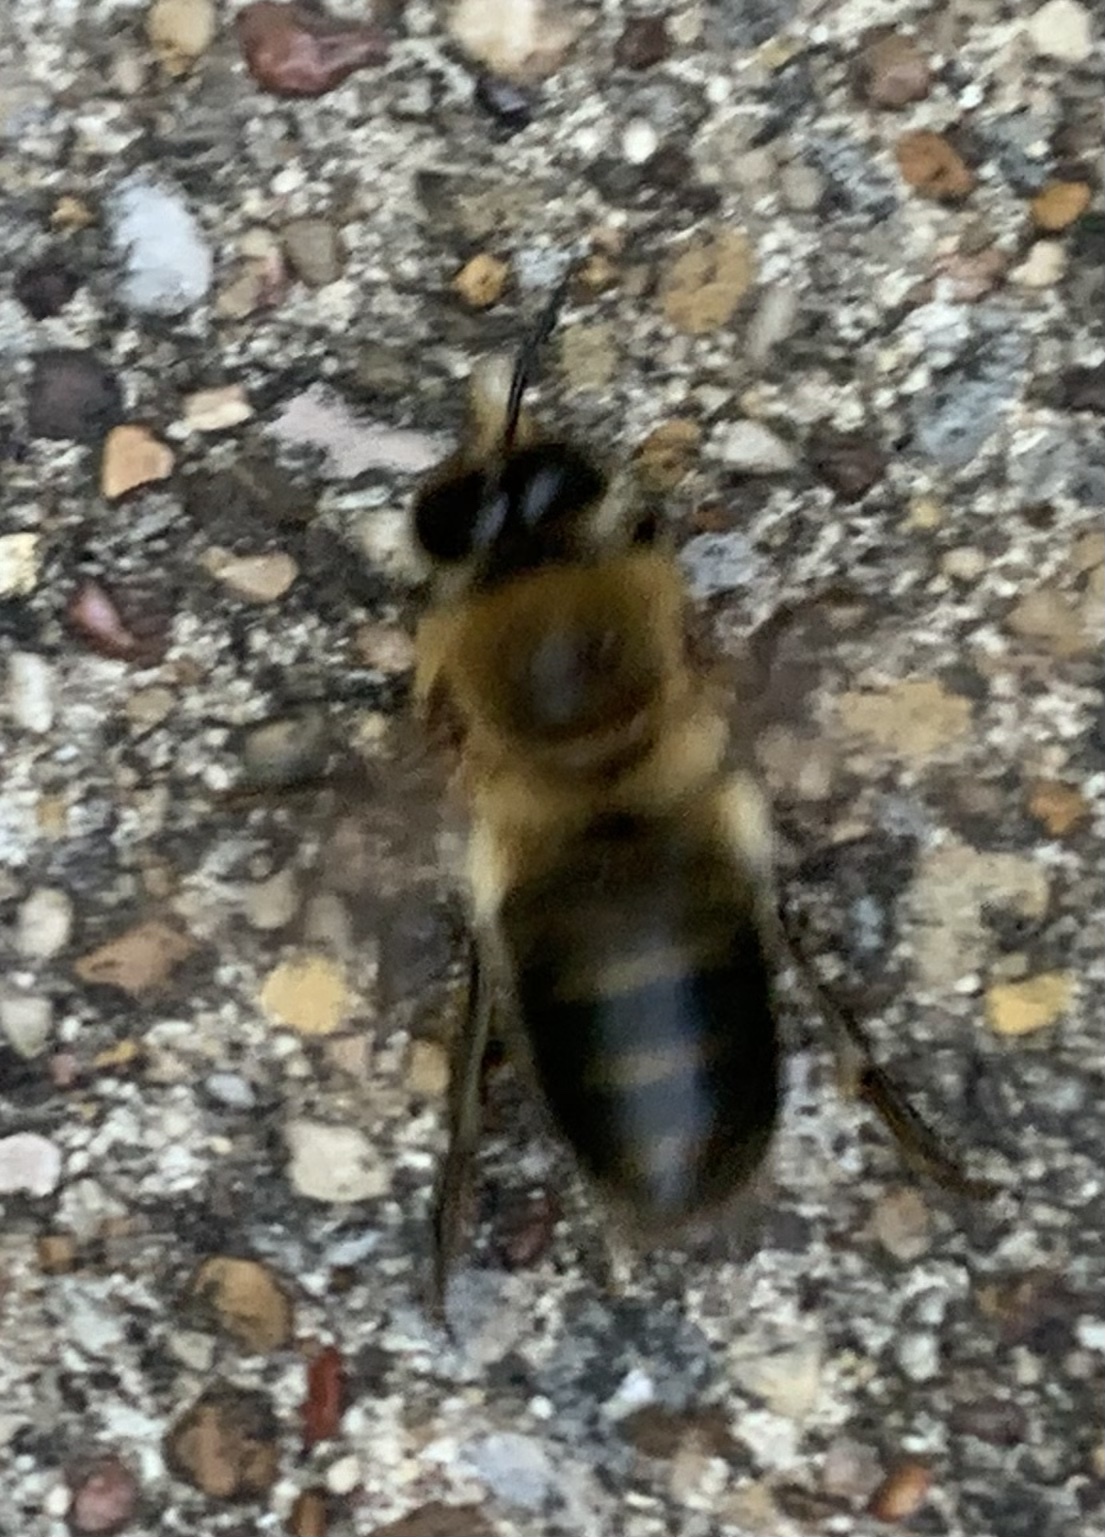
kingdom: Animalia
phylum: Arthropoda
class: Insecta
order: Hymenoptera
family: Apidae
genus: Apis
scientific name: Apis mellifera
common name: Honey bee
